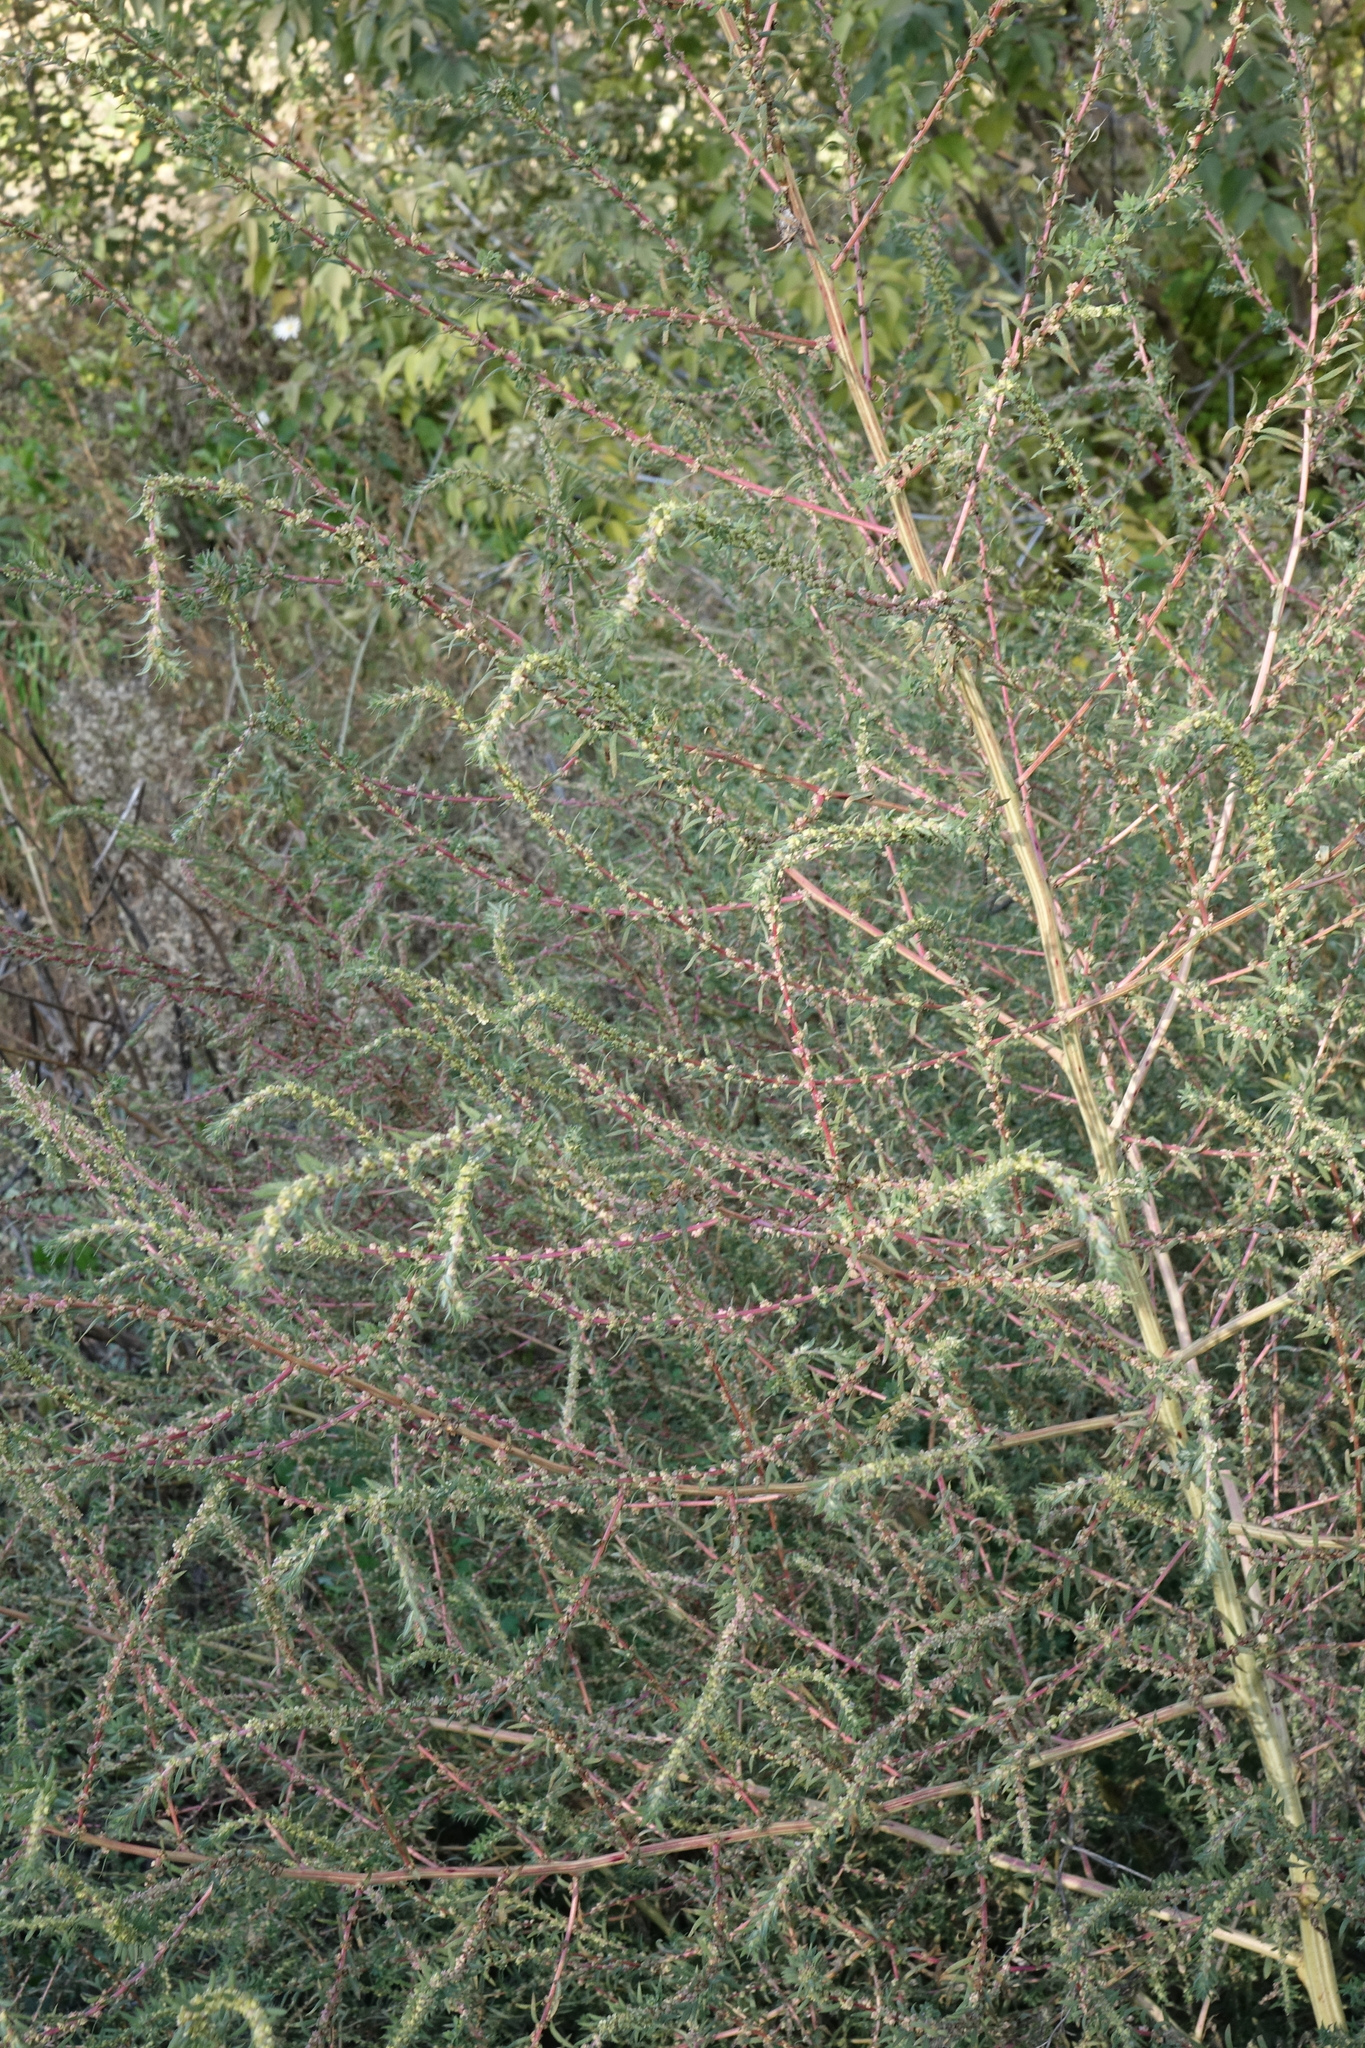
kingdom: Plantae
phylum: Tracheophyta
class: Magnoliopsida
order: Caryophyllales
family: Amaranthaceae
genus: Bassia
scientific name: Bassia prostrata
